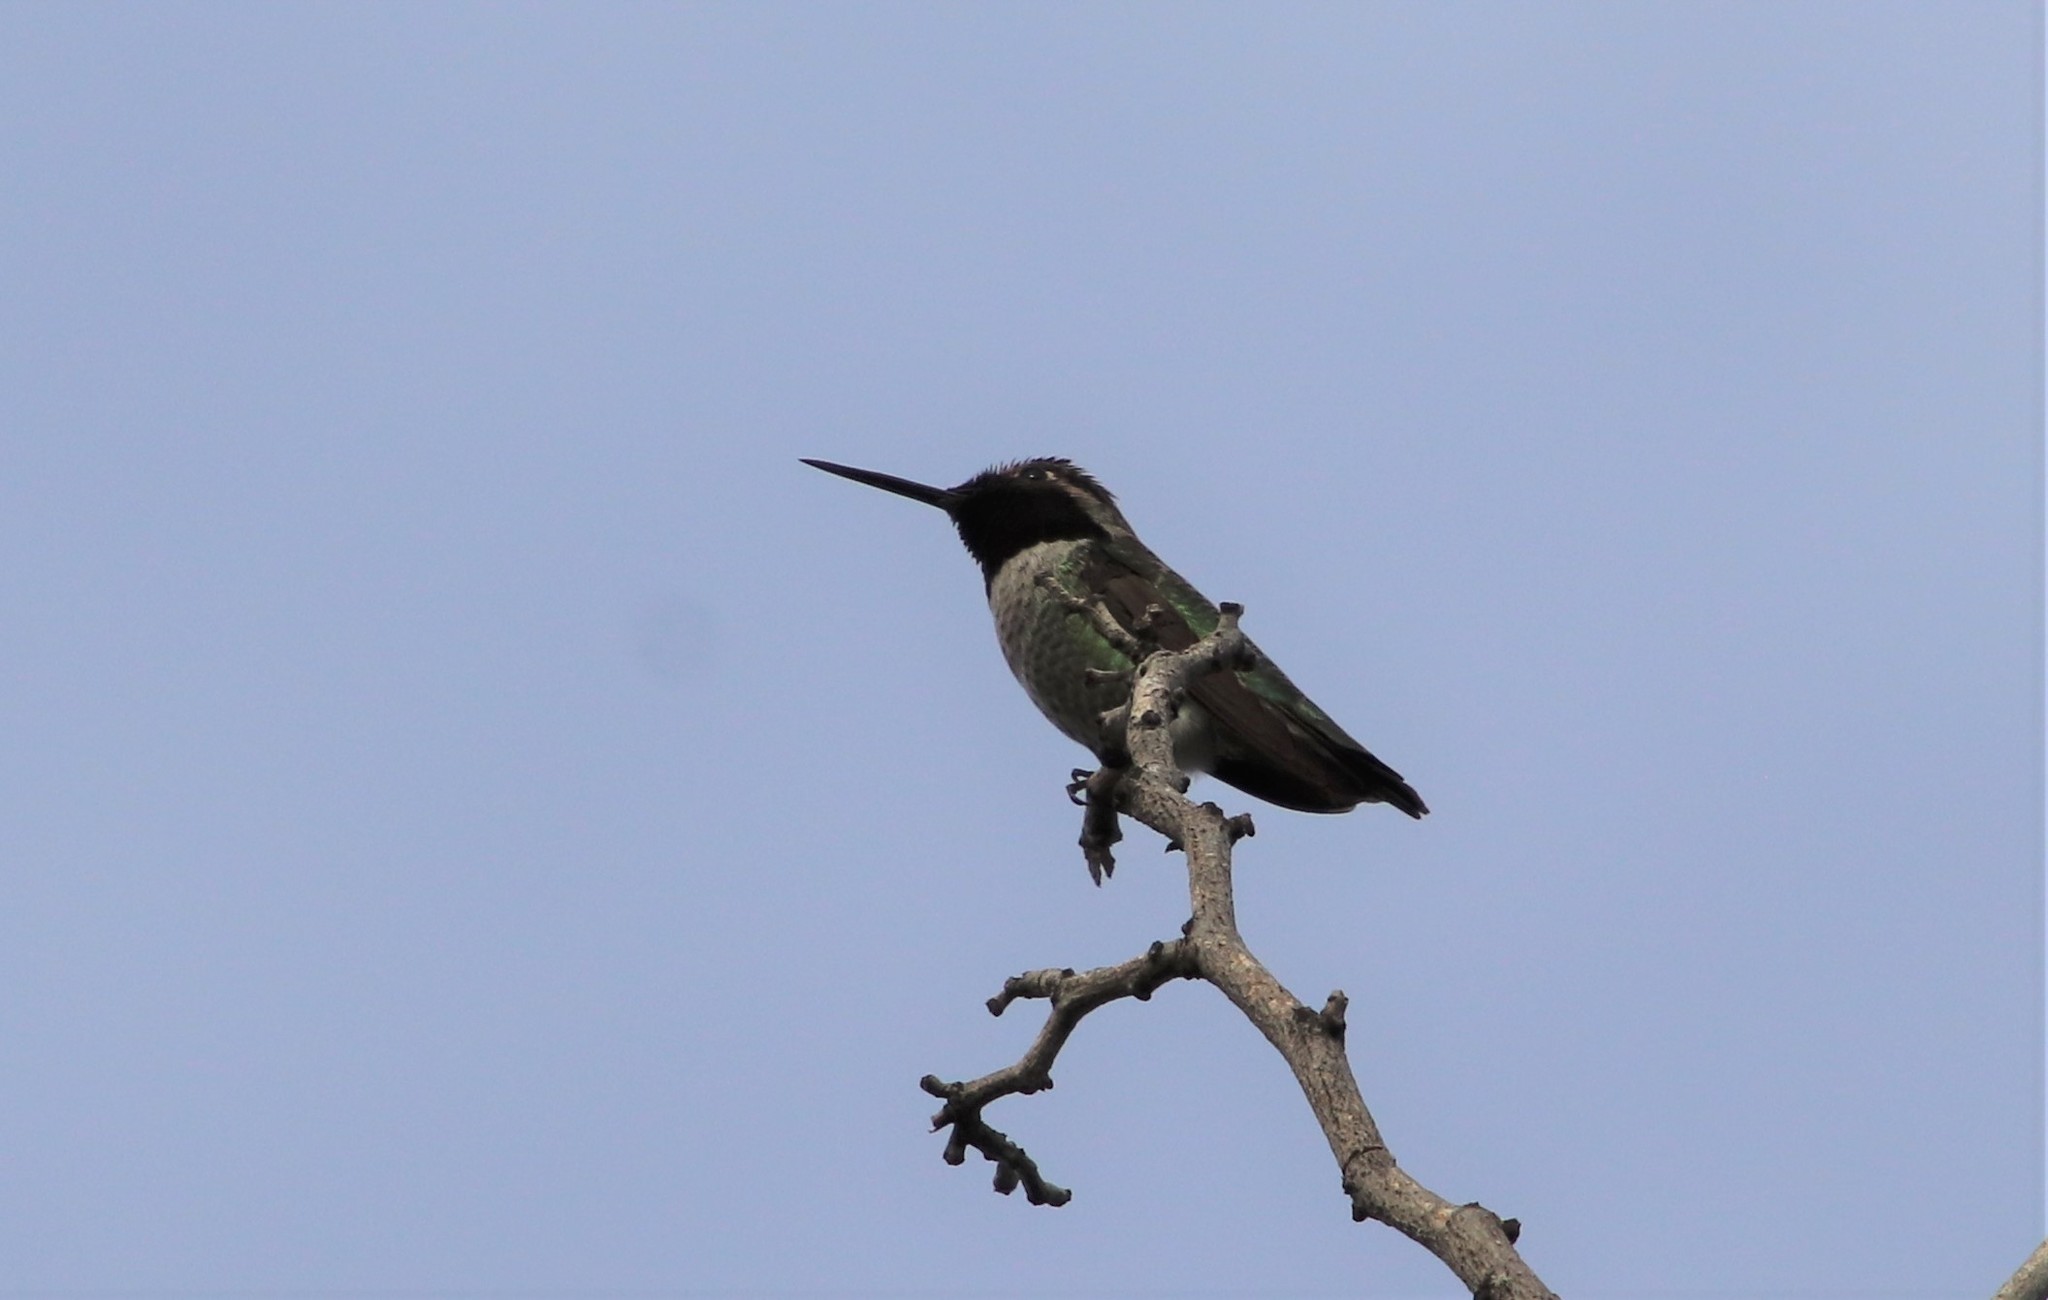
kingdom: Animalia
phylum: Chordata
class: Aves
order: Apodiformes
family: Trochilidae
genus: Calypte
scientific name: Calypte anna
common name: Anna's hummingbird
